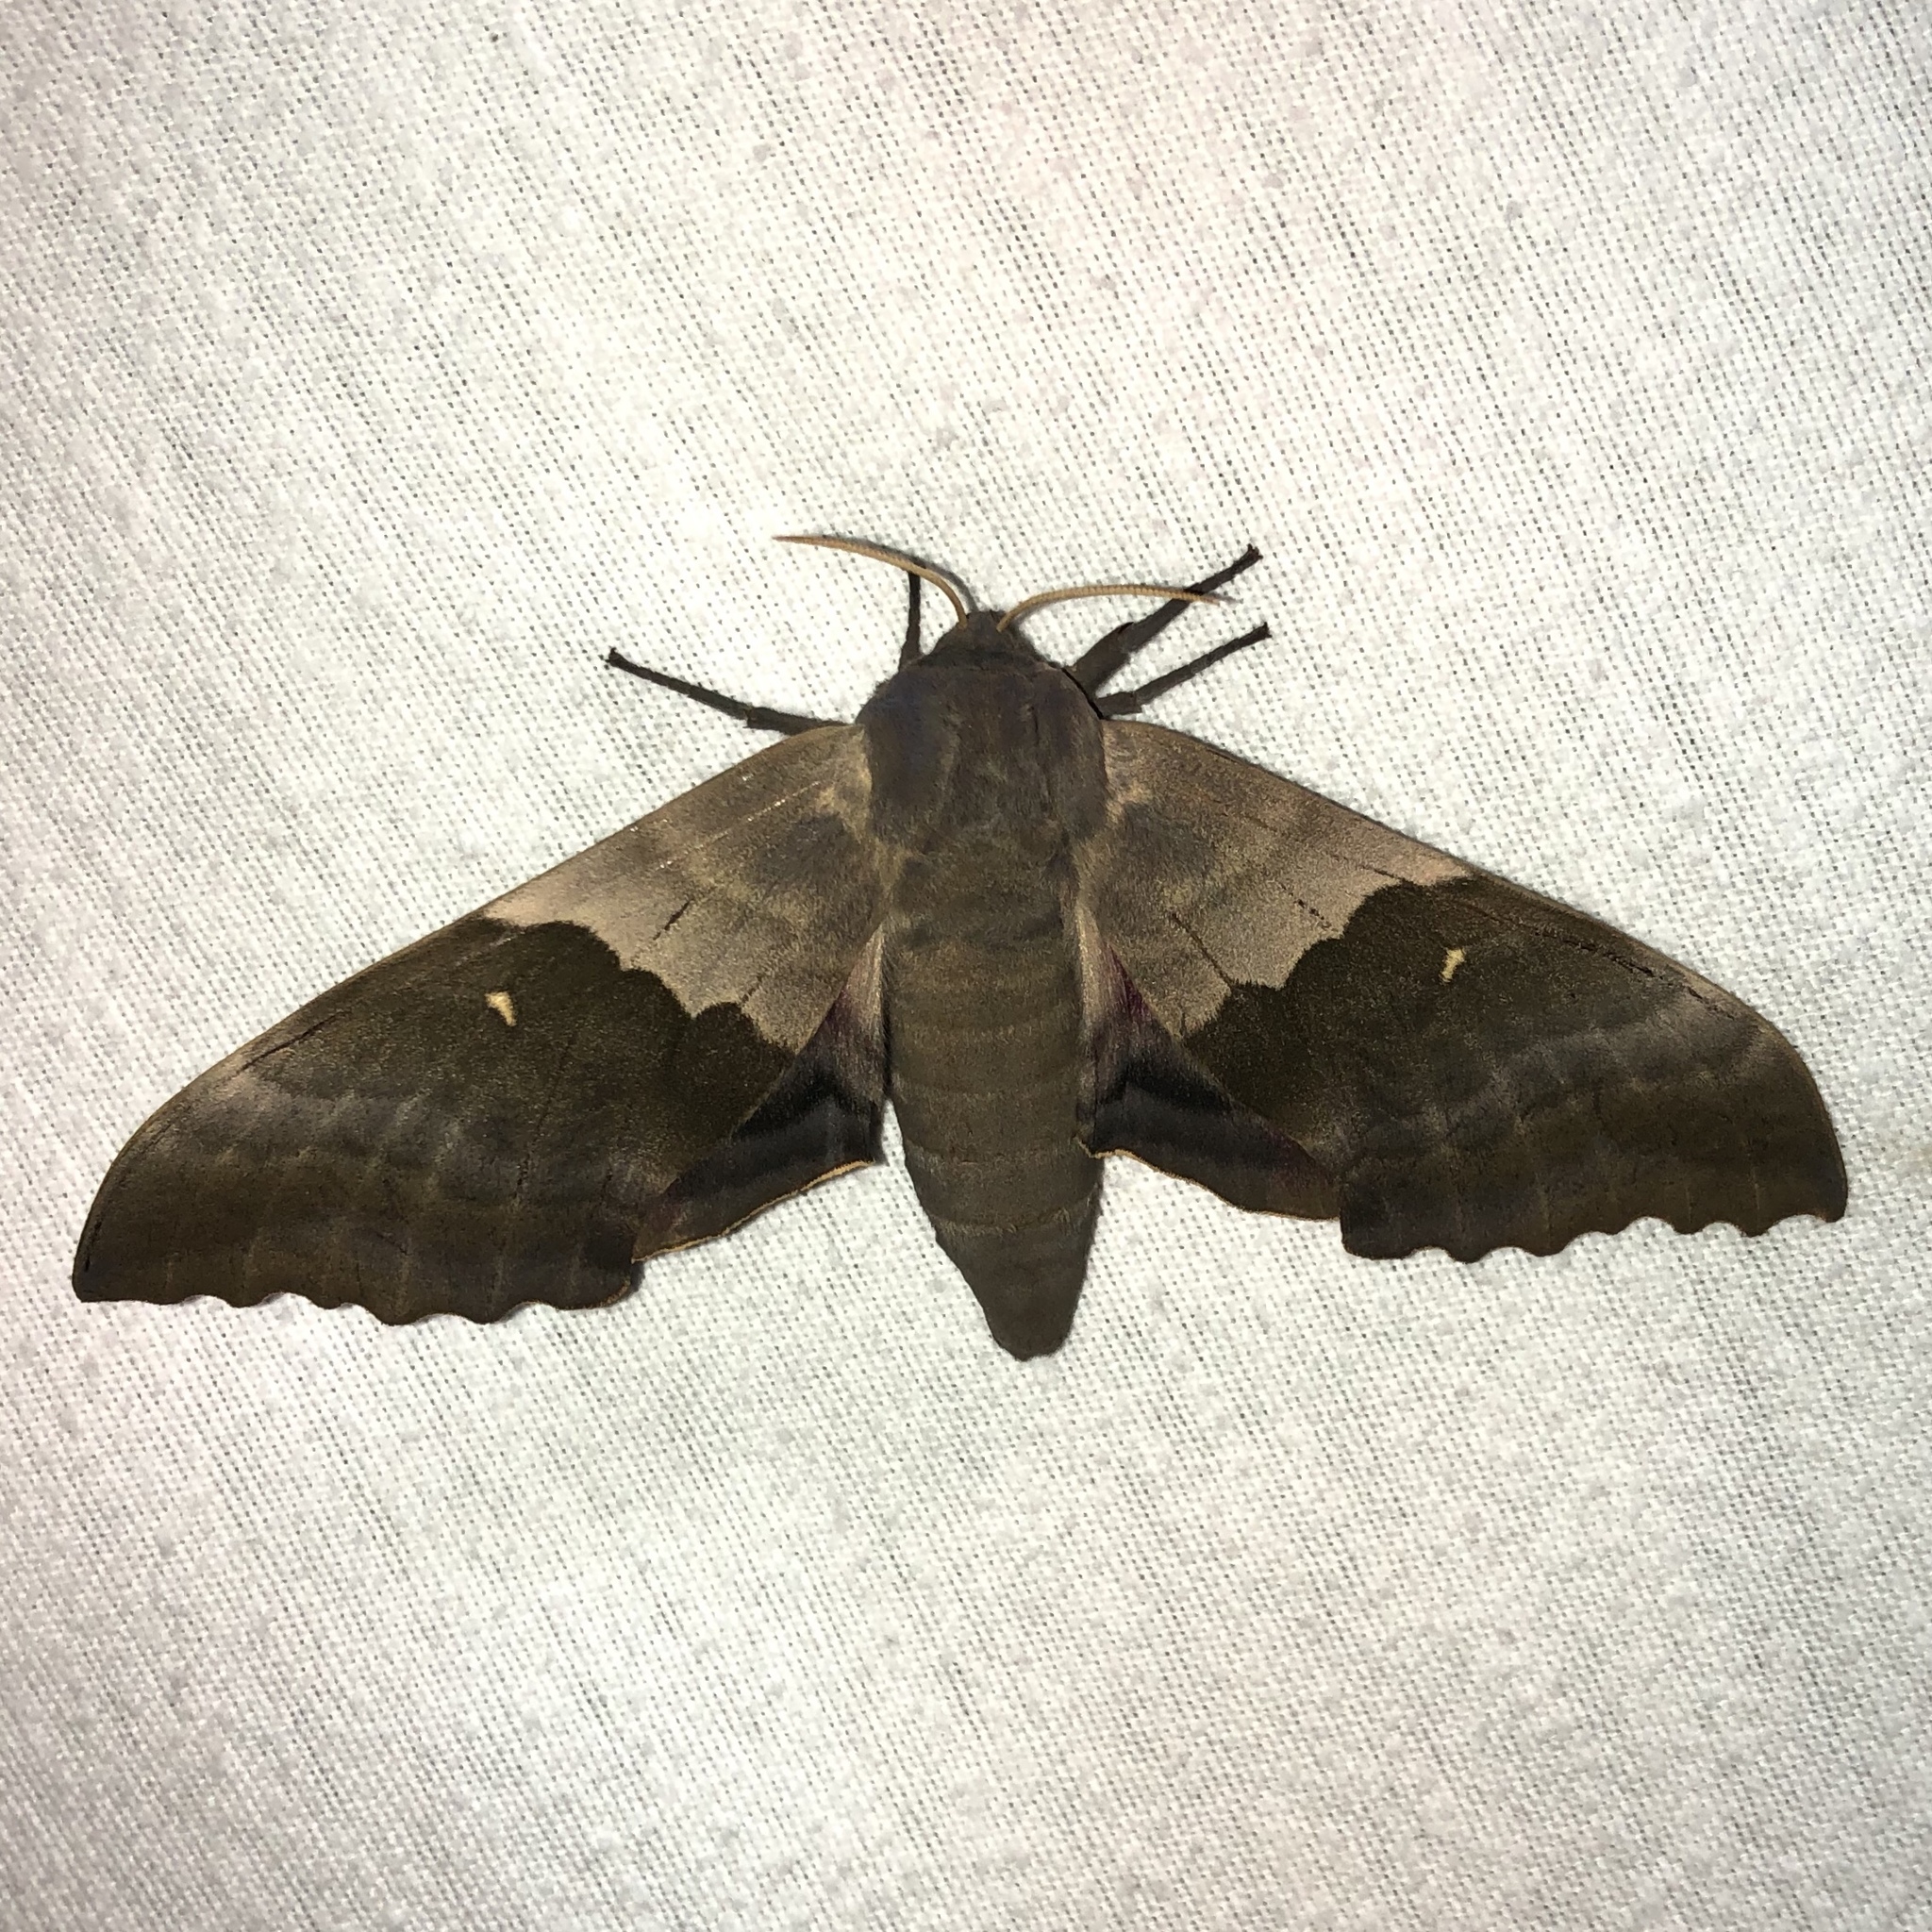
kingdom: Animalia
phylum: Arthropoda
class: Insecta
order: Lepidoptera
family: Sphingidae
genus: Pachysphinx
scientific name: Pachysphinx modesta
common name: Big poplar sphinx
